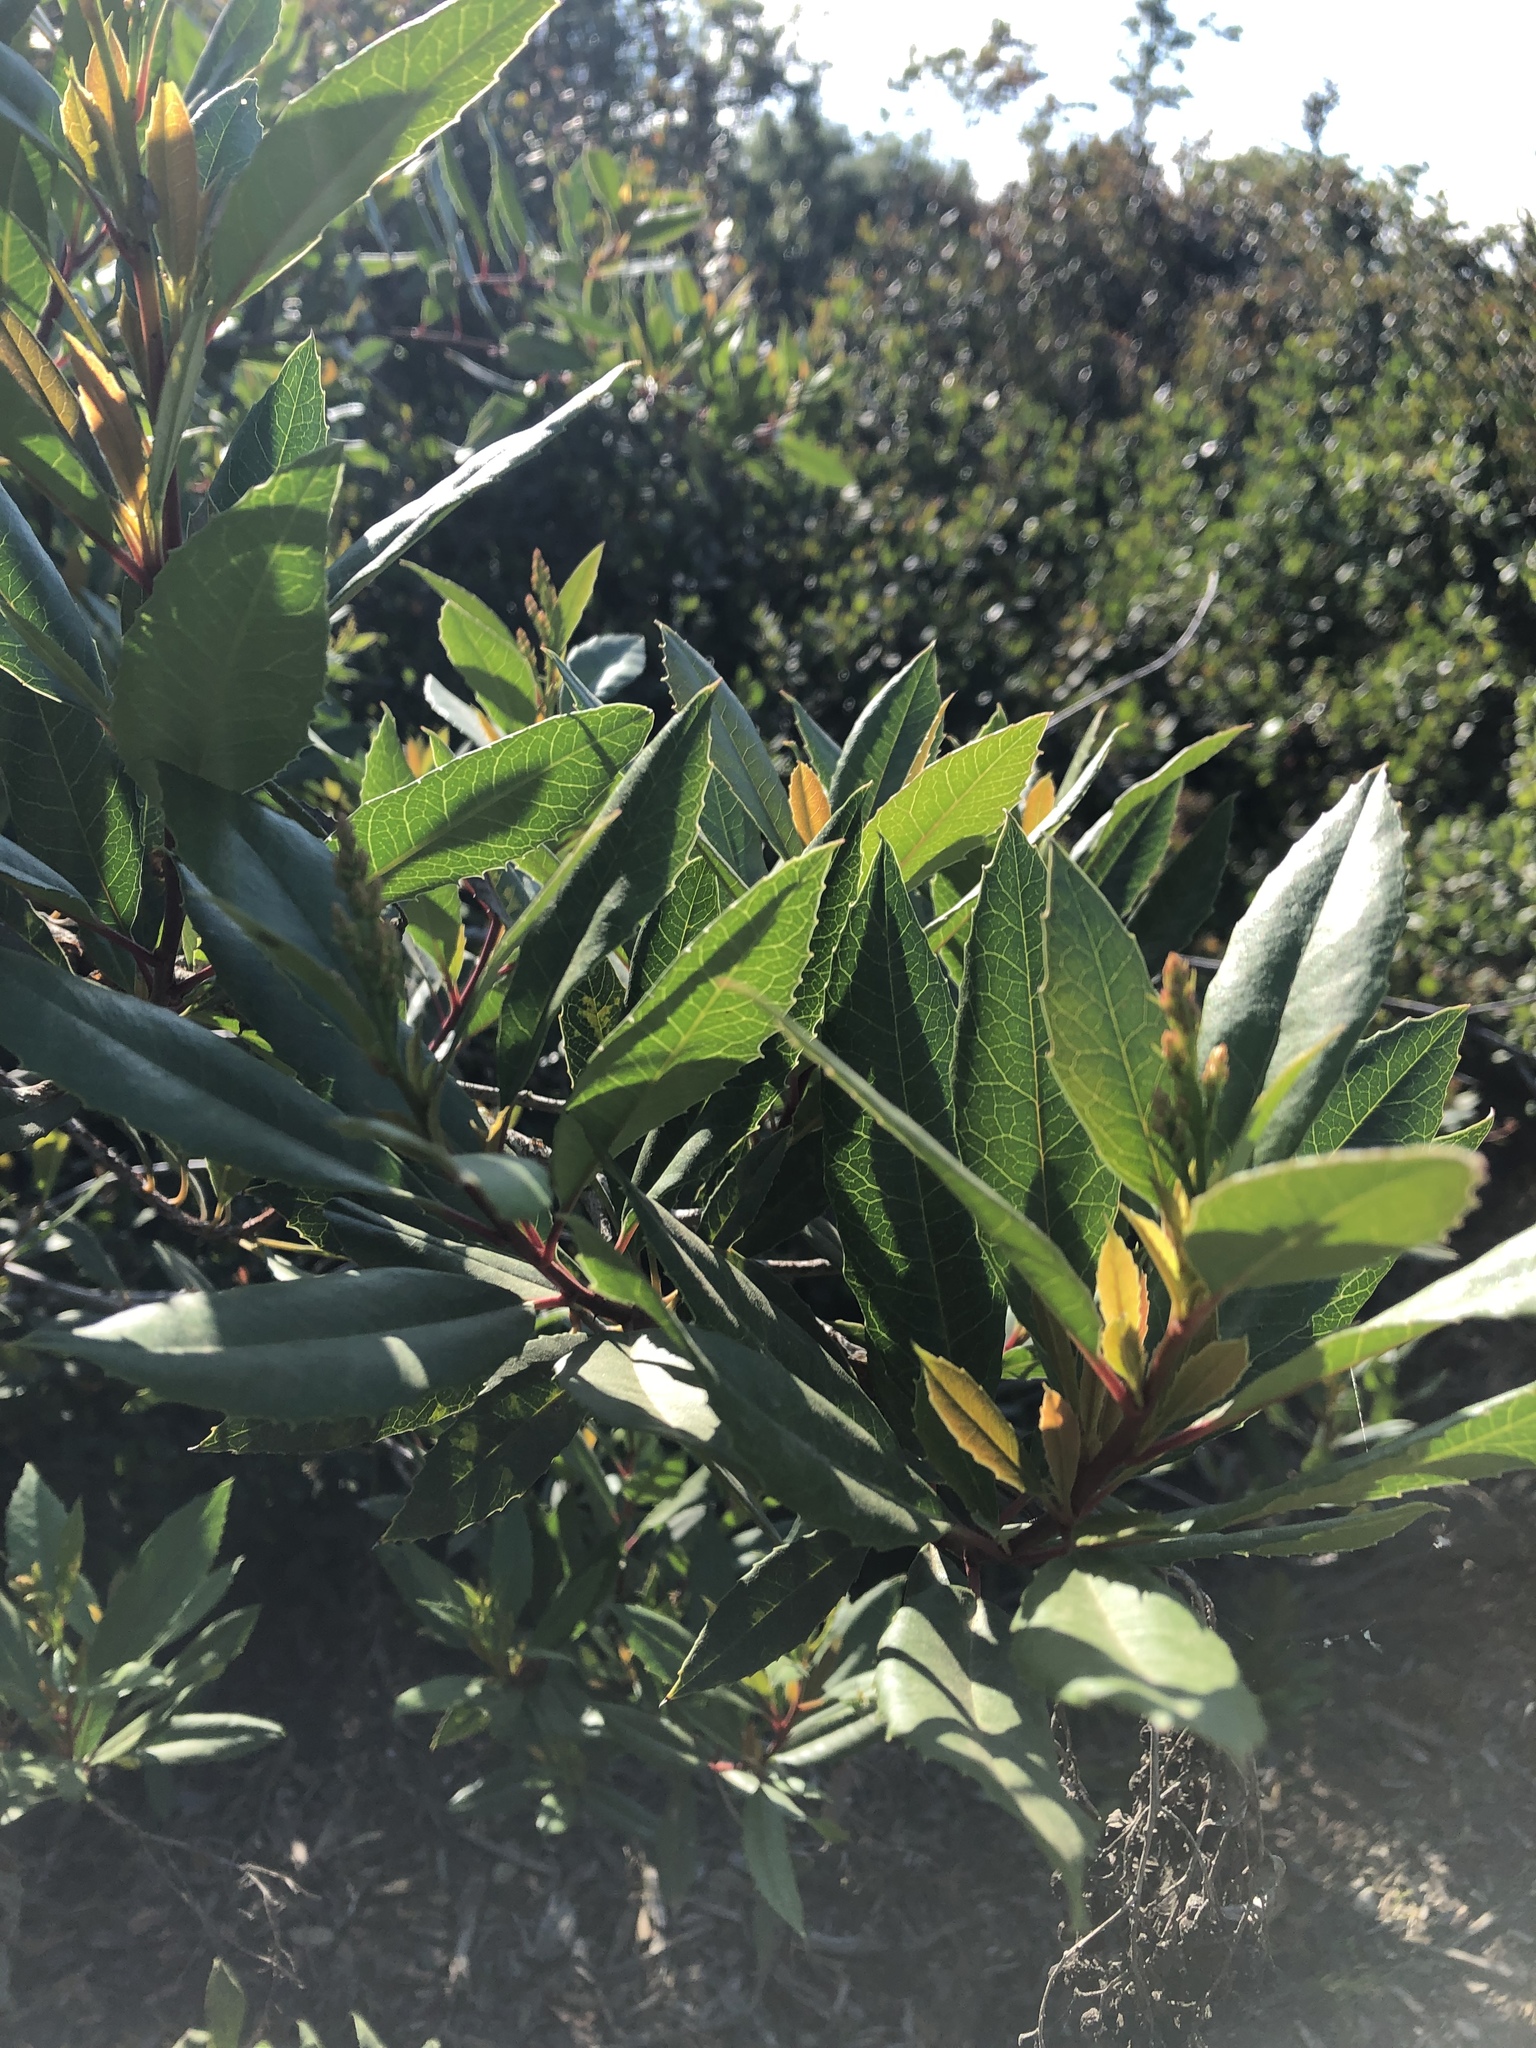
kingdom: Plantae
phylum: Tracheophyta
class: Magnoliopsida
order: Rosales
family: Rosaceae
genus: Heteromeles
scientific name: Heteromeles arbutifolia
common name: California-holly
